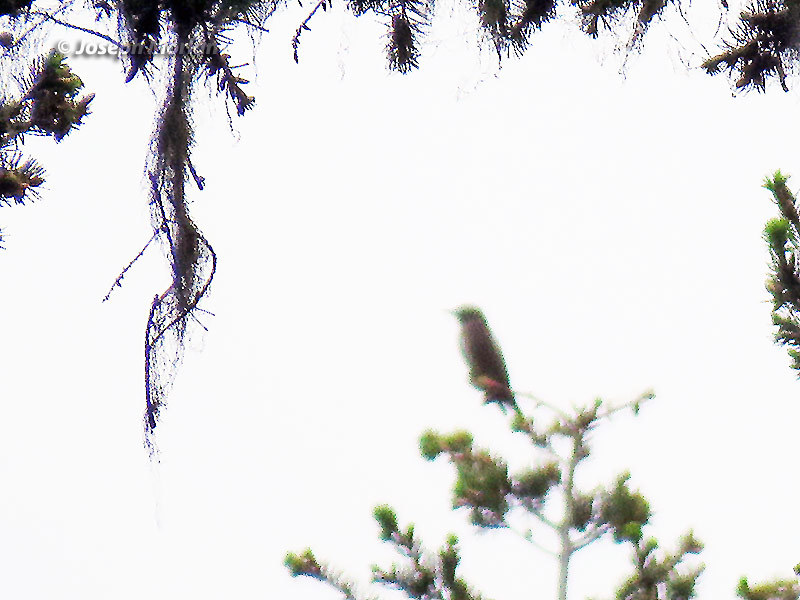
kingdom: Animalia
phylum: Chordata
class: Aves
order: Passeriformes
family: Tyrannidae
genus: Contopus
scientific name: Contopus cooperi
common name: Olive-sided flycatcher
